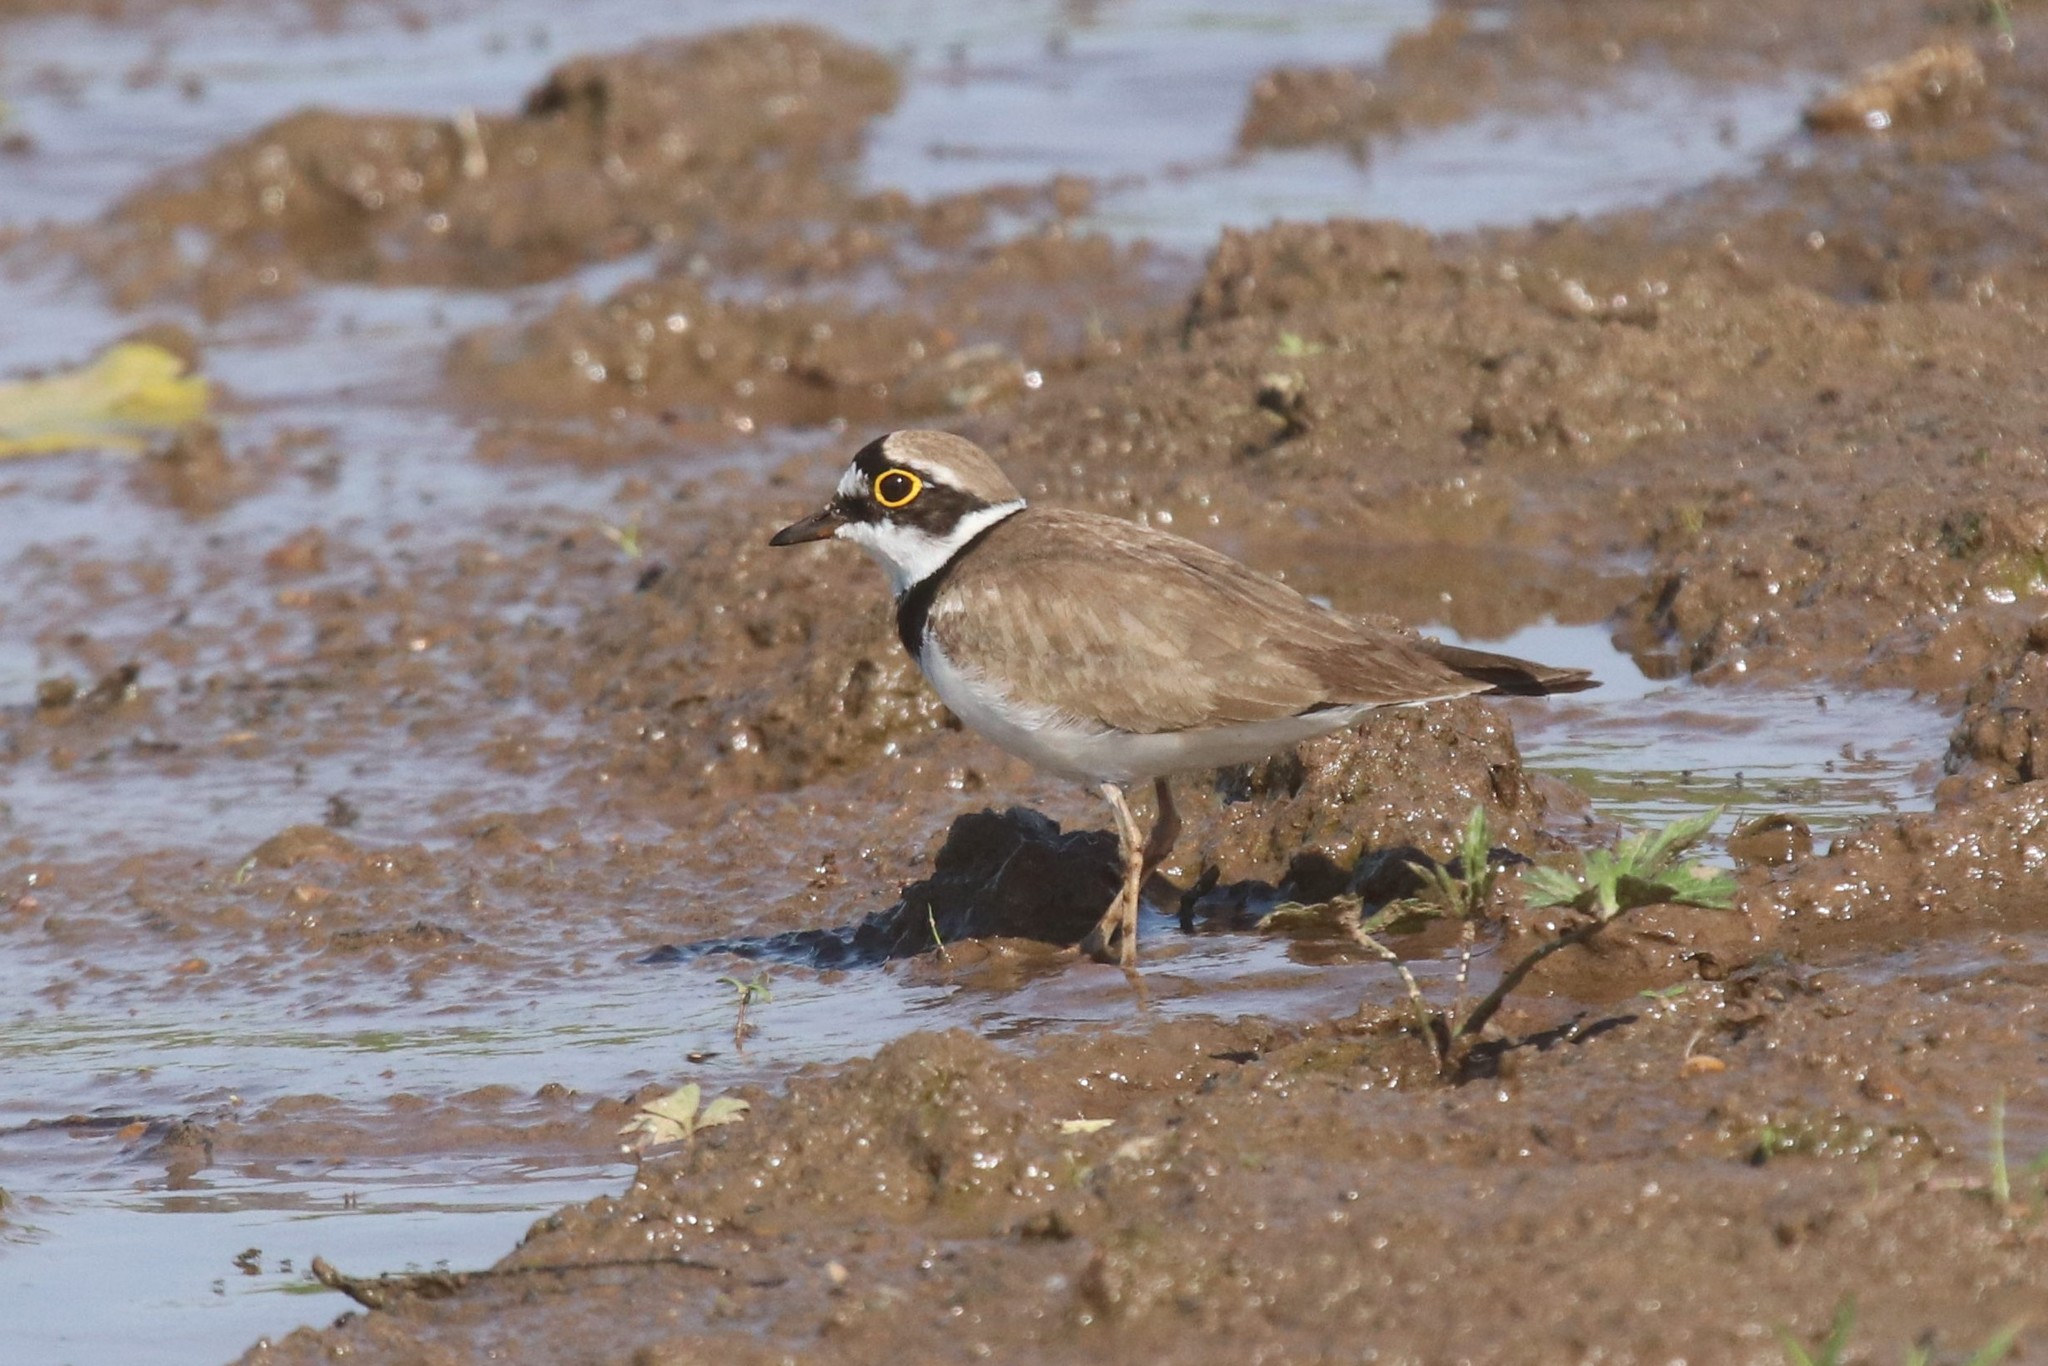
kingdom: Animalia
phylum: Chordata
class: Aves
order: Charadriiformes
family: Charadriidae
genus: Charadrius
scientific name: Charadrius dubius
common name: Little ringed plover
